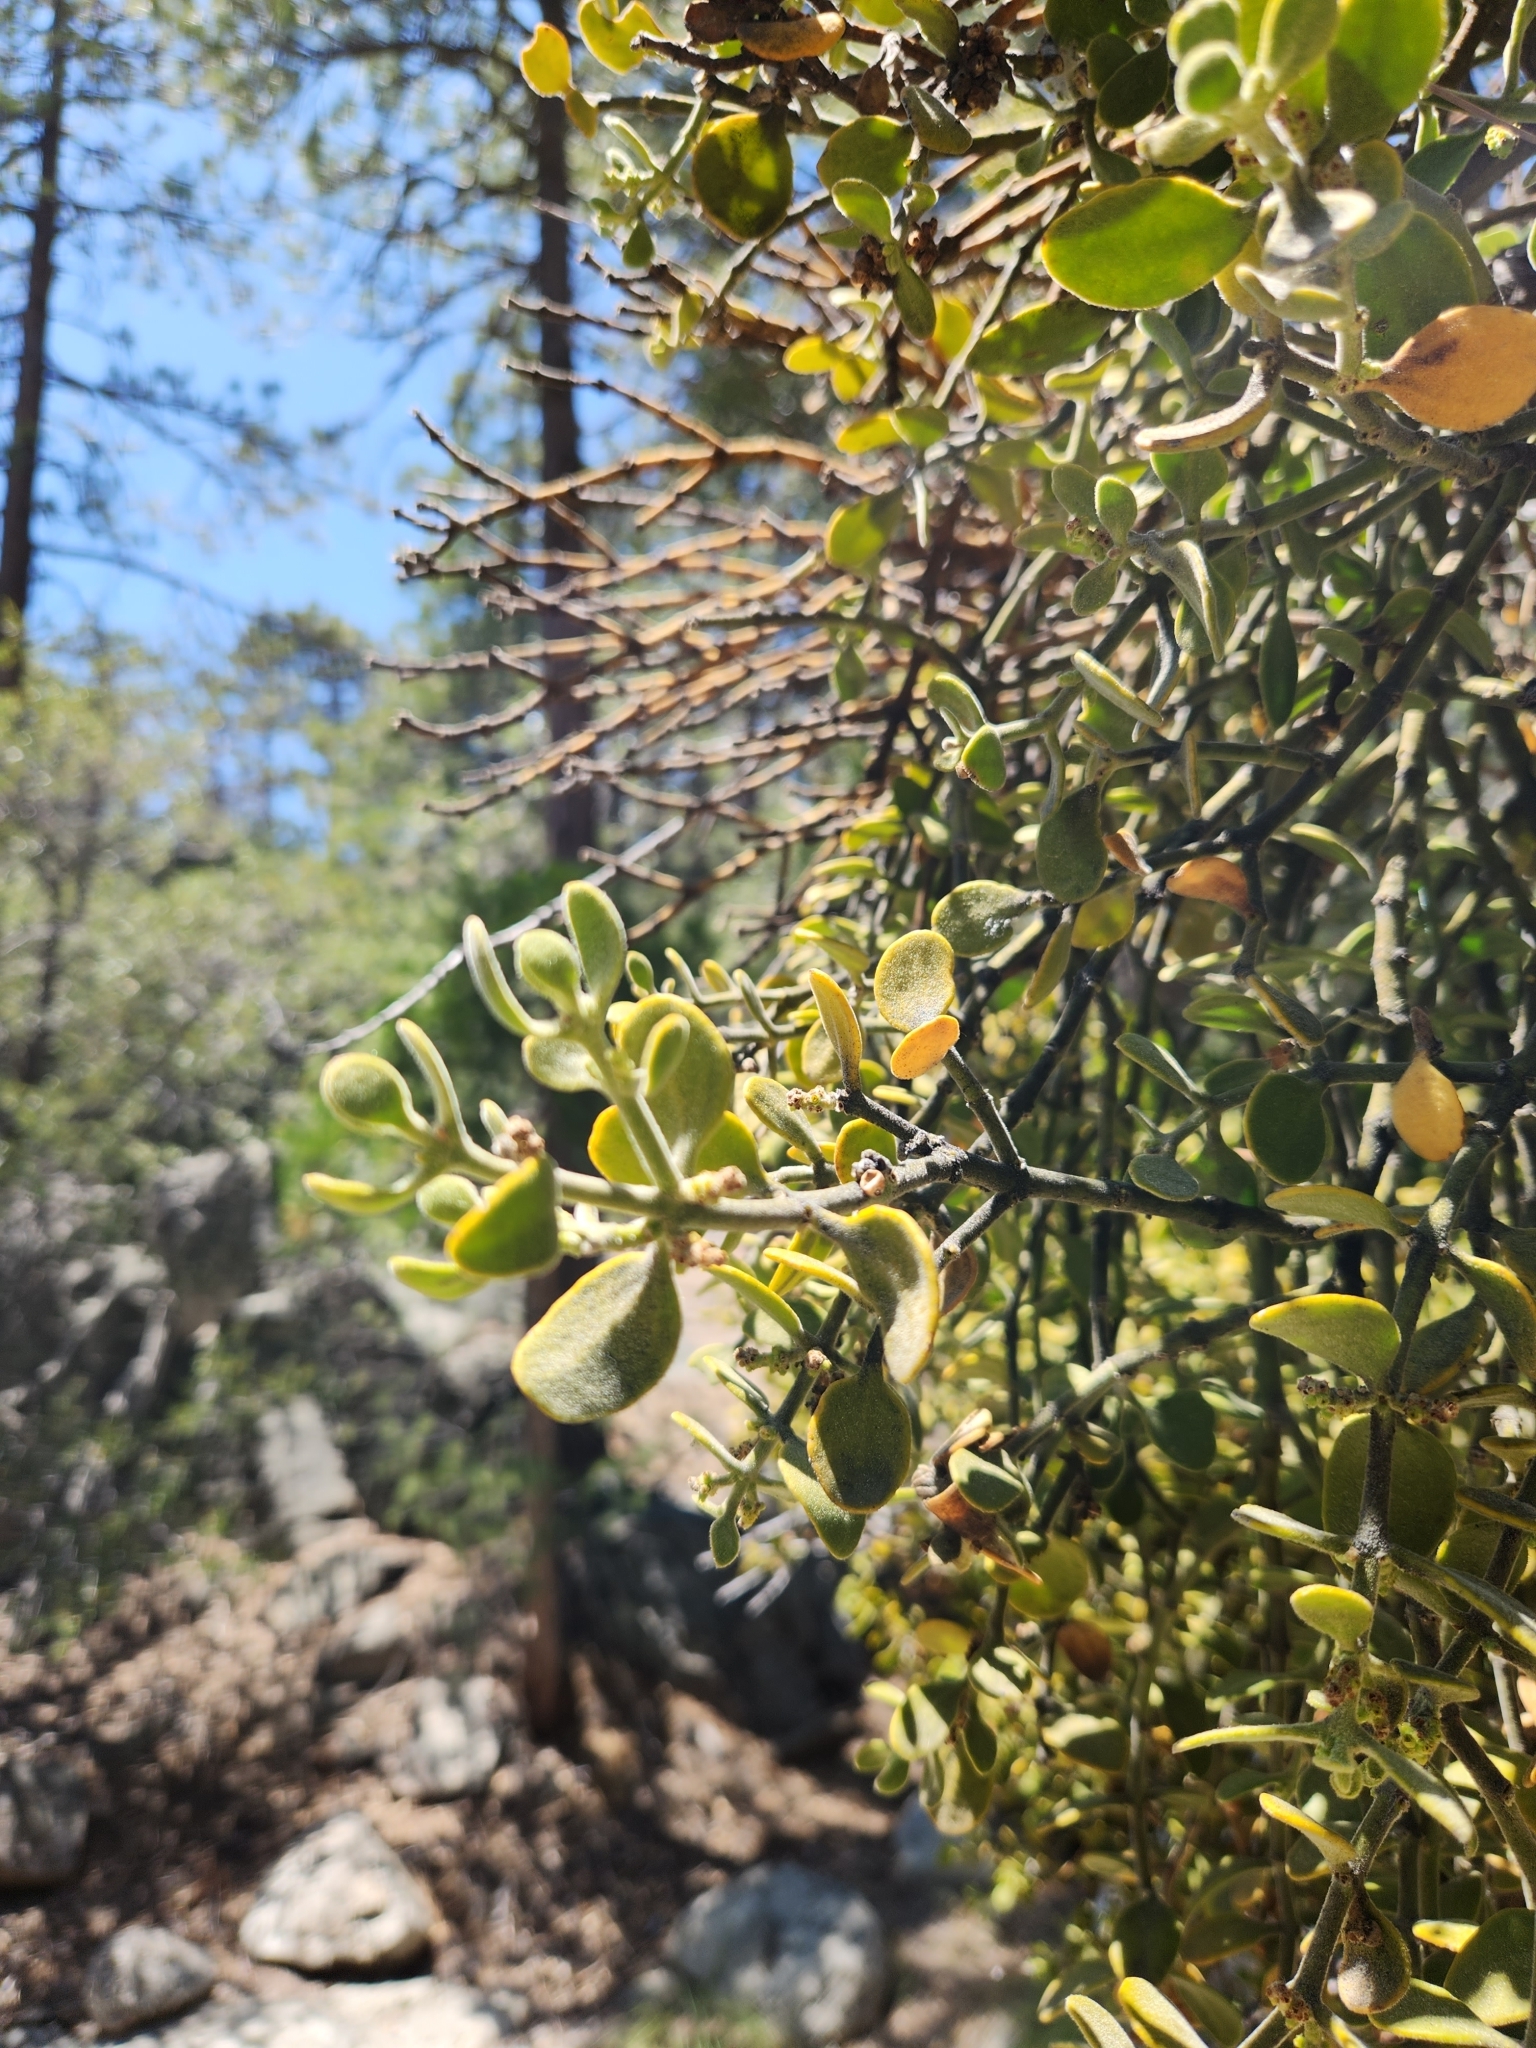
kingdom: Plantae
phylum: Tracheophyta
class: Magnoliopsida
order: Santalales
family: Viscaceae
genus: Phoradendron
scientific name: Phoradendron leucarpum
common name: Pacific mistletoe
